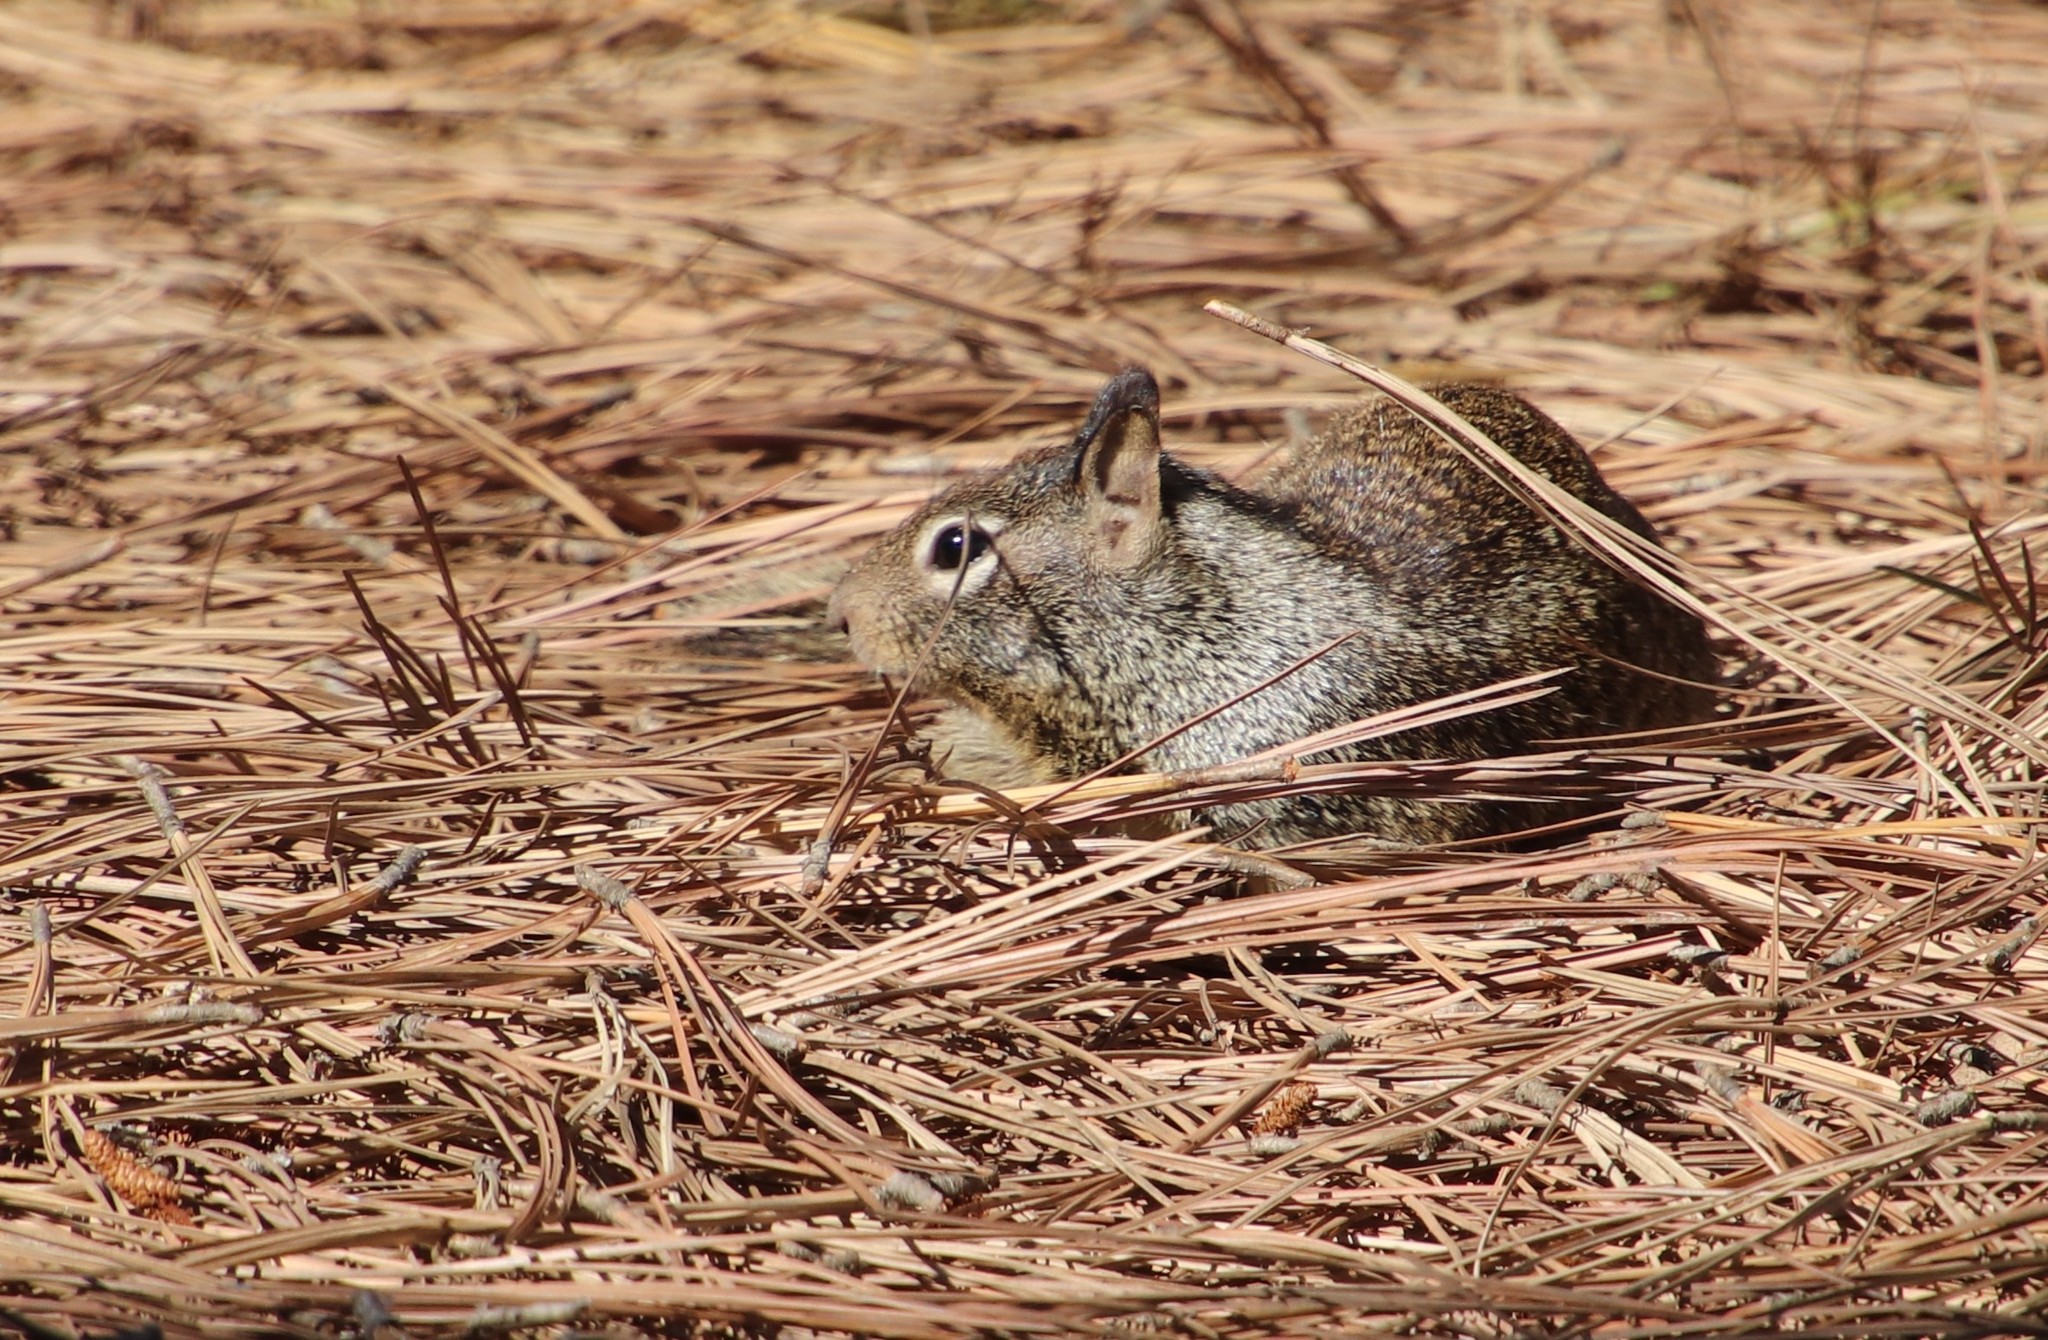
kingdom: Animalia
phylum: Chordata
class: Mammalia
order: Rodentia
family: Sciuridae
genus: Otospermophilus
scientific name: Otospermophilus beecheyi
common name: California ground squirrel
